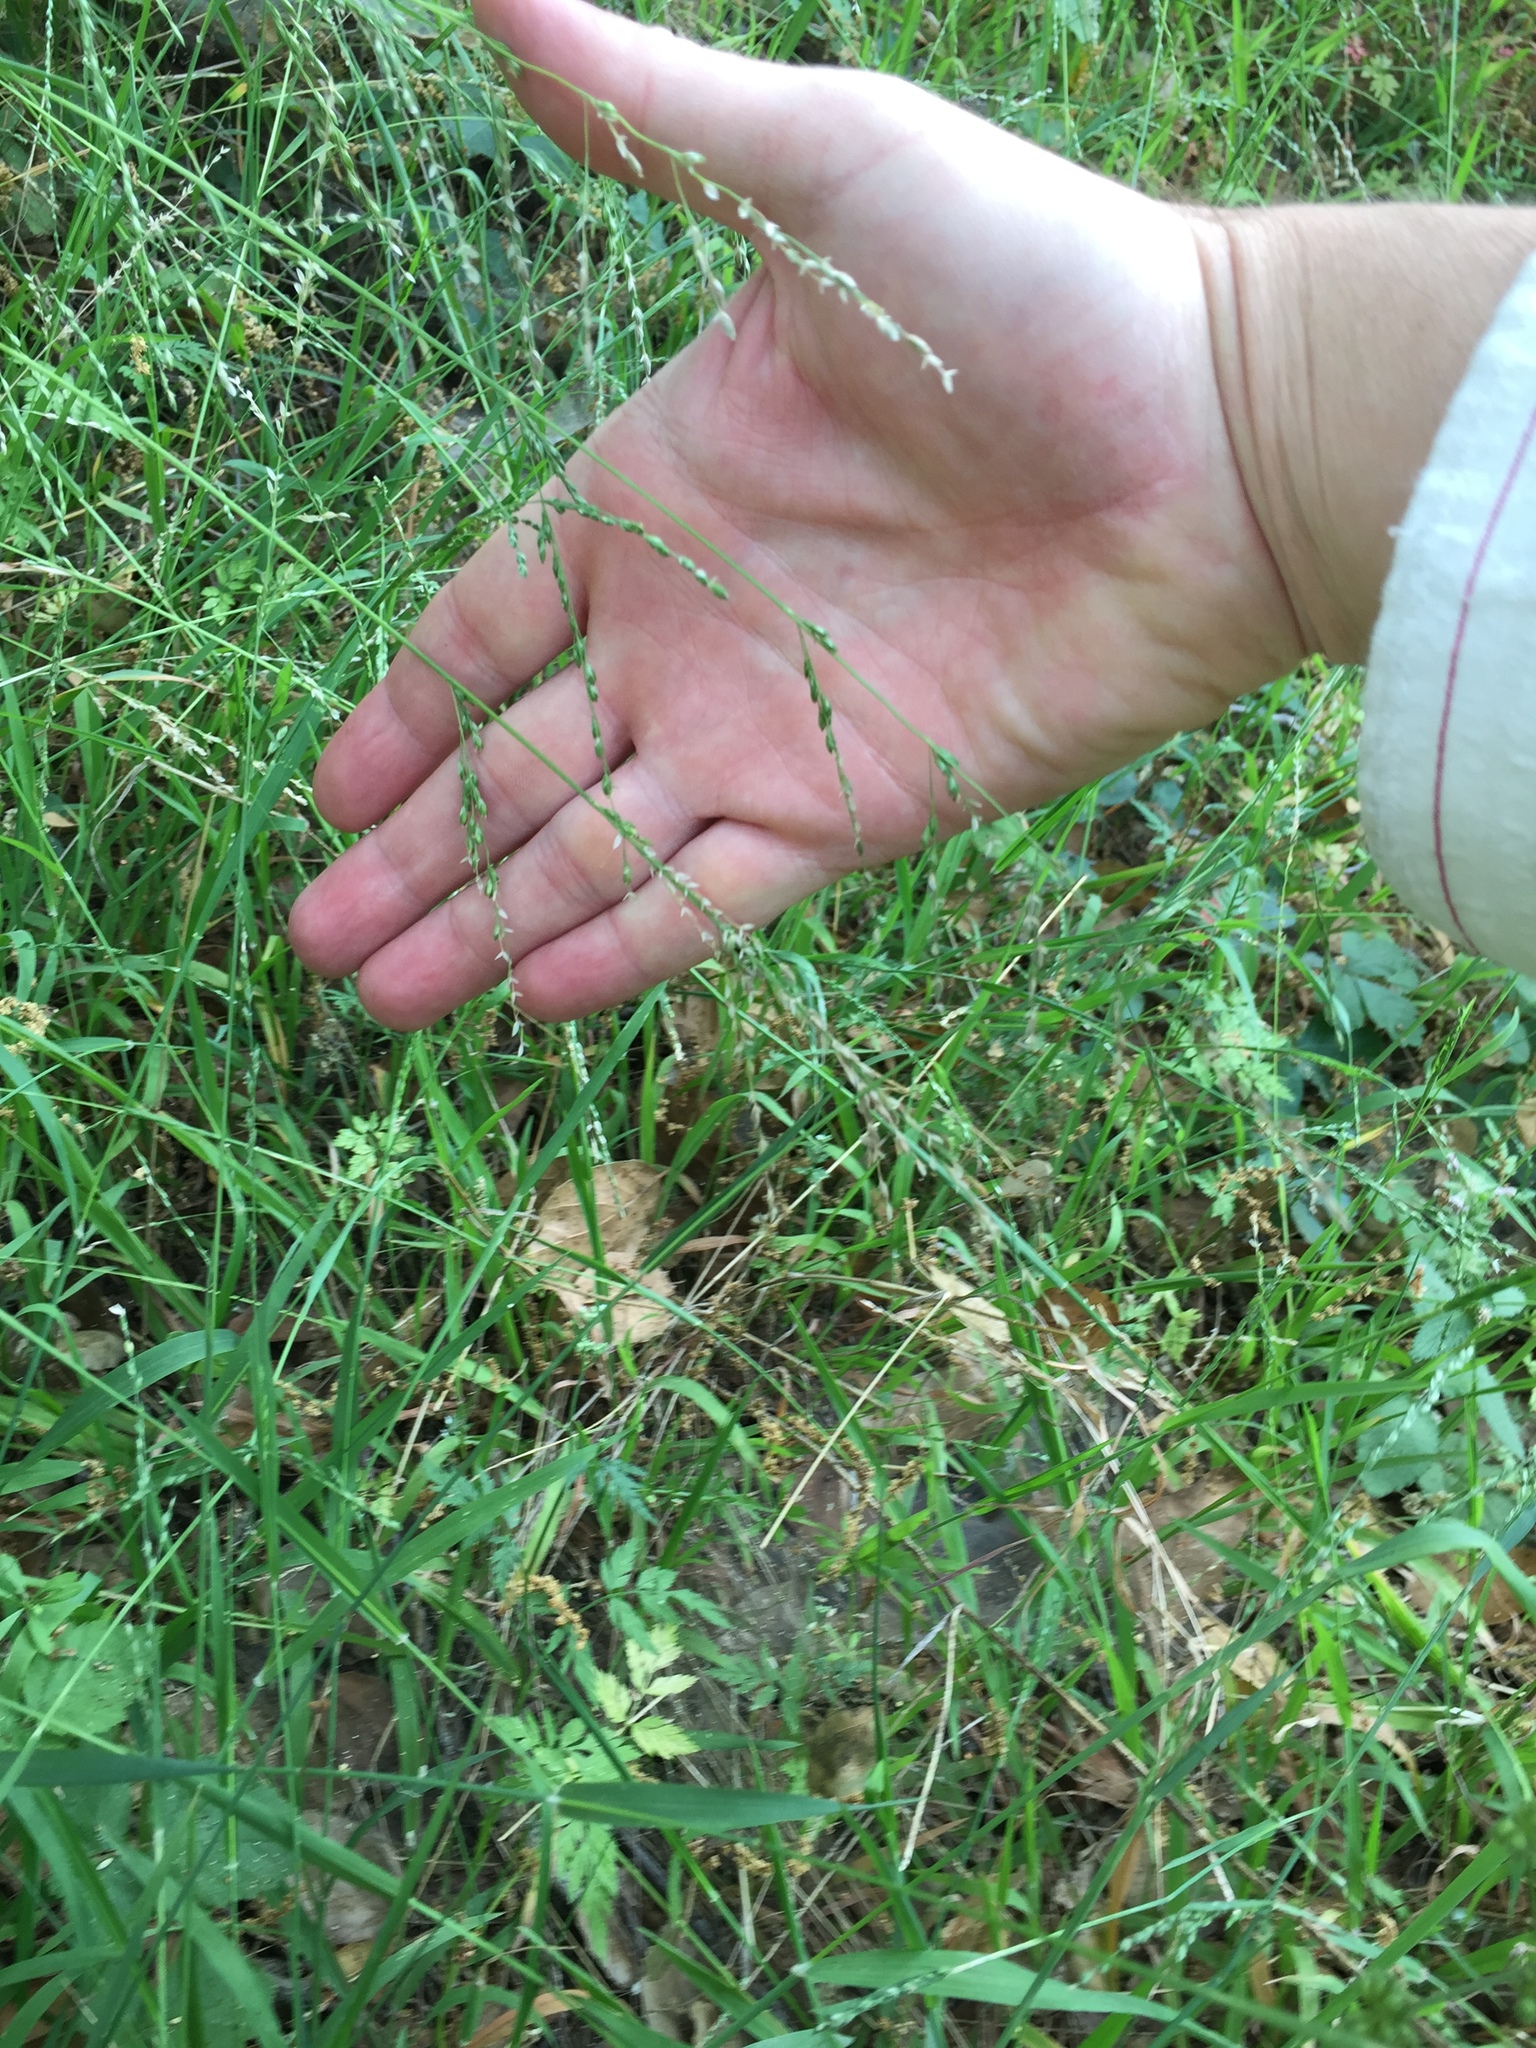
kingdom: Plantae
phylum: Tracheophyta
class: Liliopsida
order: Poales
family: Poaceae
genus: Ehrharta
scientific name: Ehrharta erecta
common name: Panic veldtgrass
